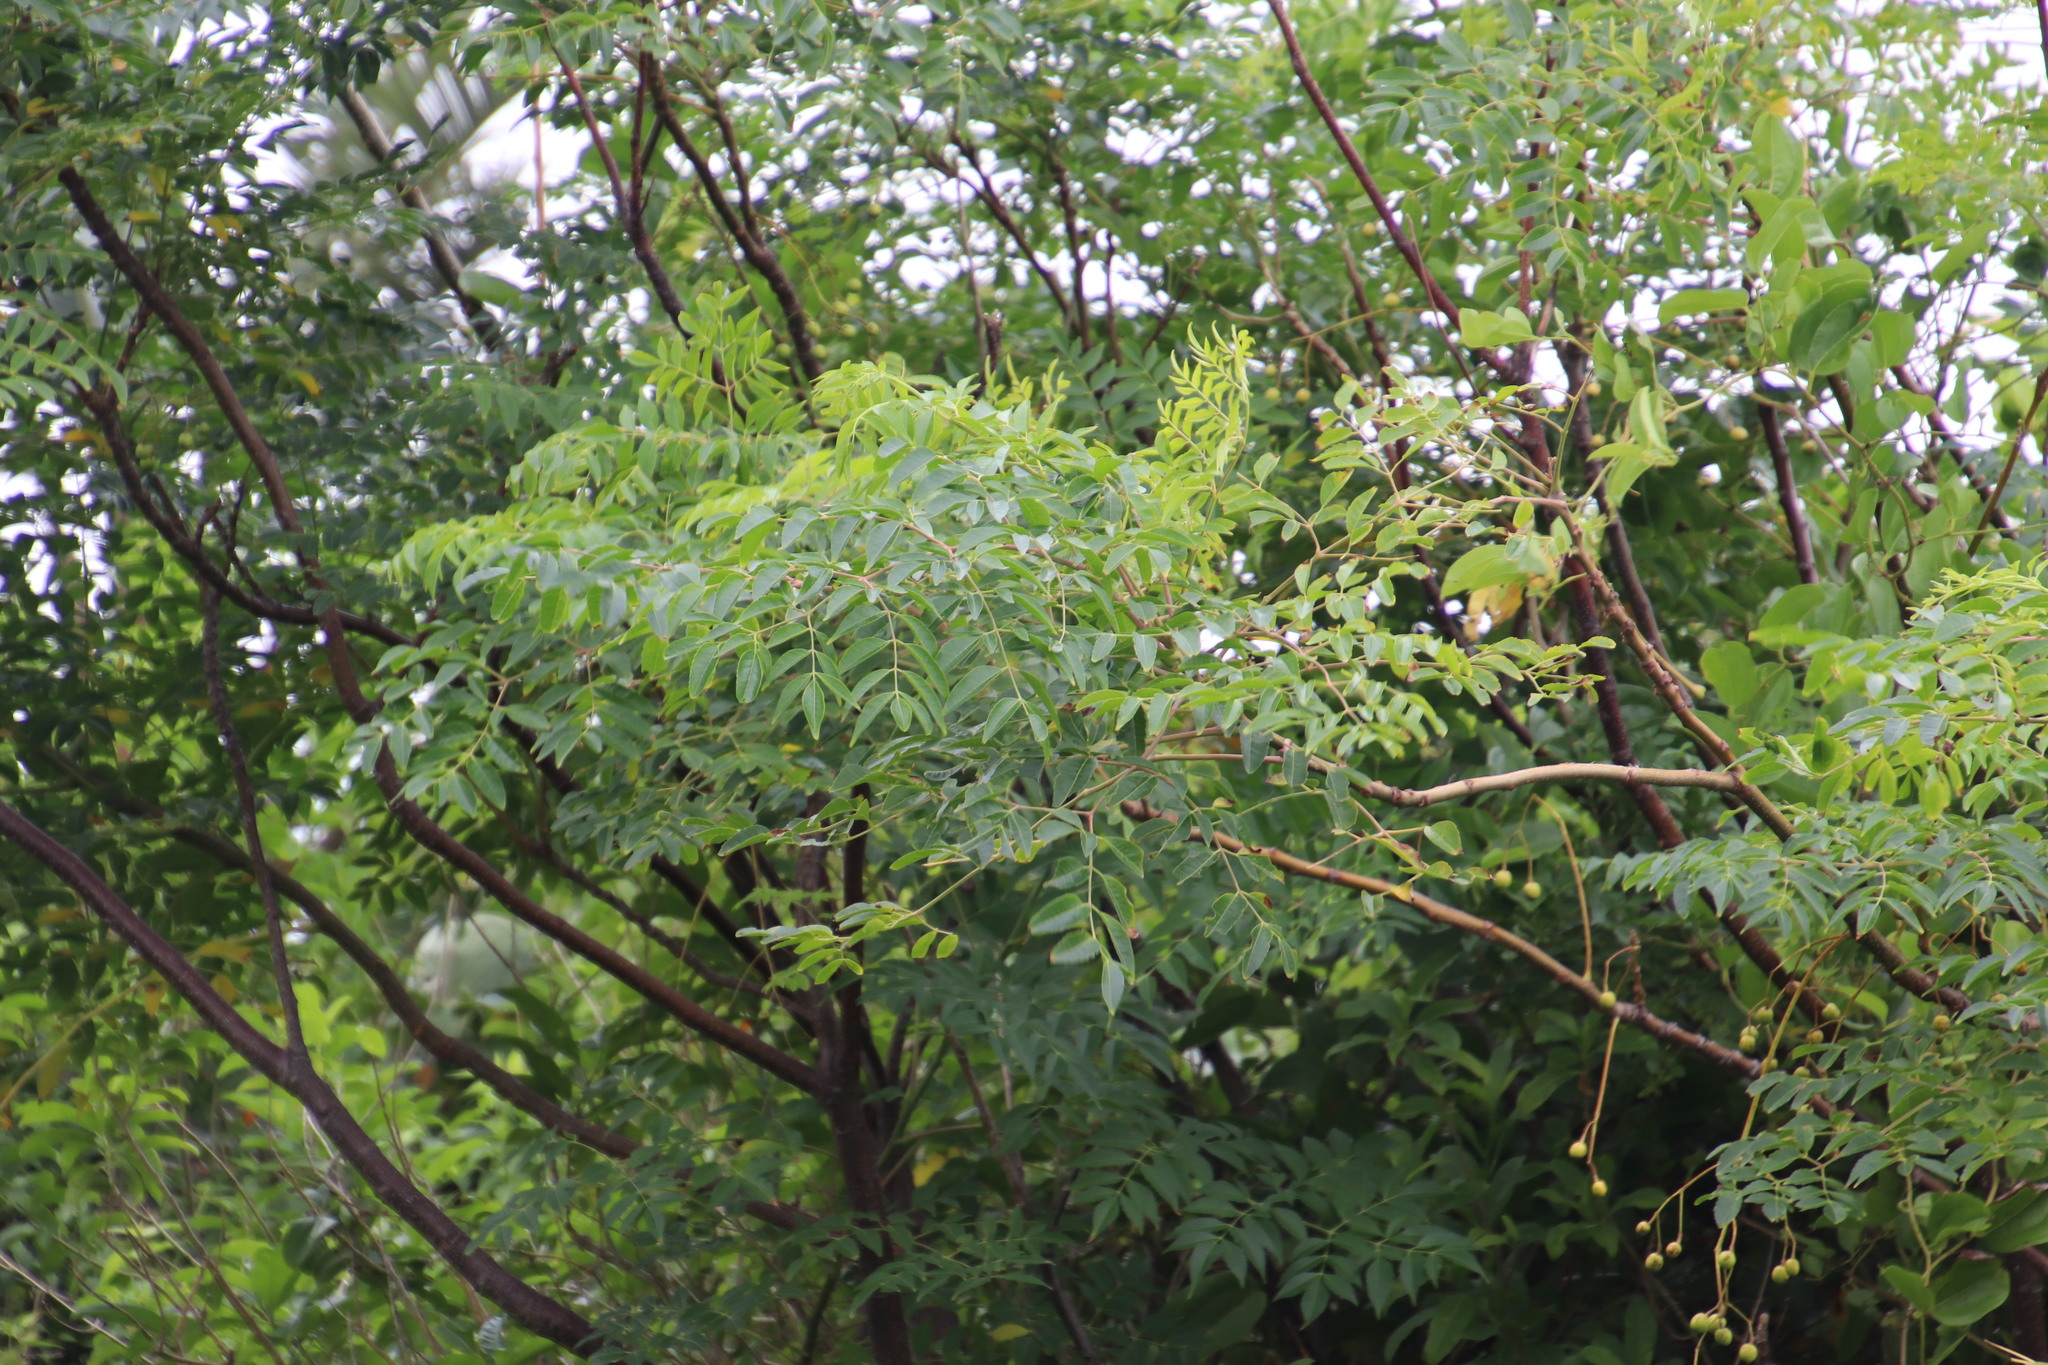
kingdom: Plantae
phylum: Tracheophyta
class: Magnoliopsida
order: Sapindales
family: Meliaceae
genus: Melia
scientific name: Melia azedarach
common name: Chinaberrytree
